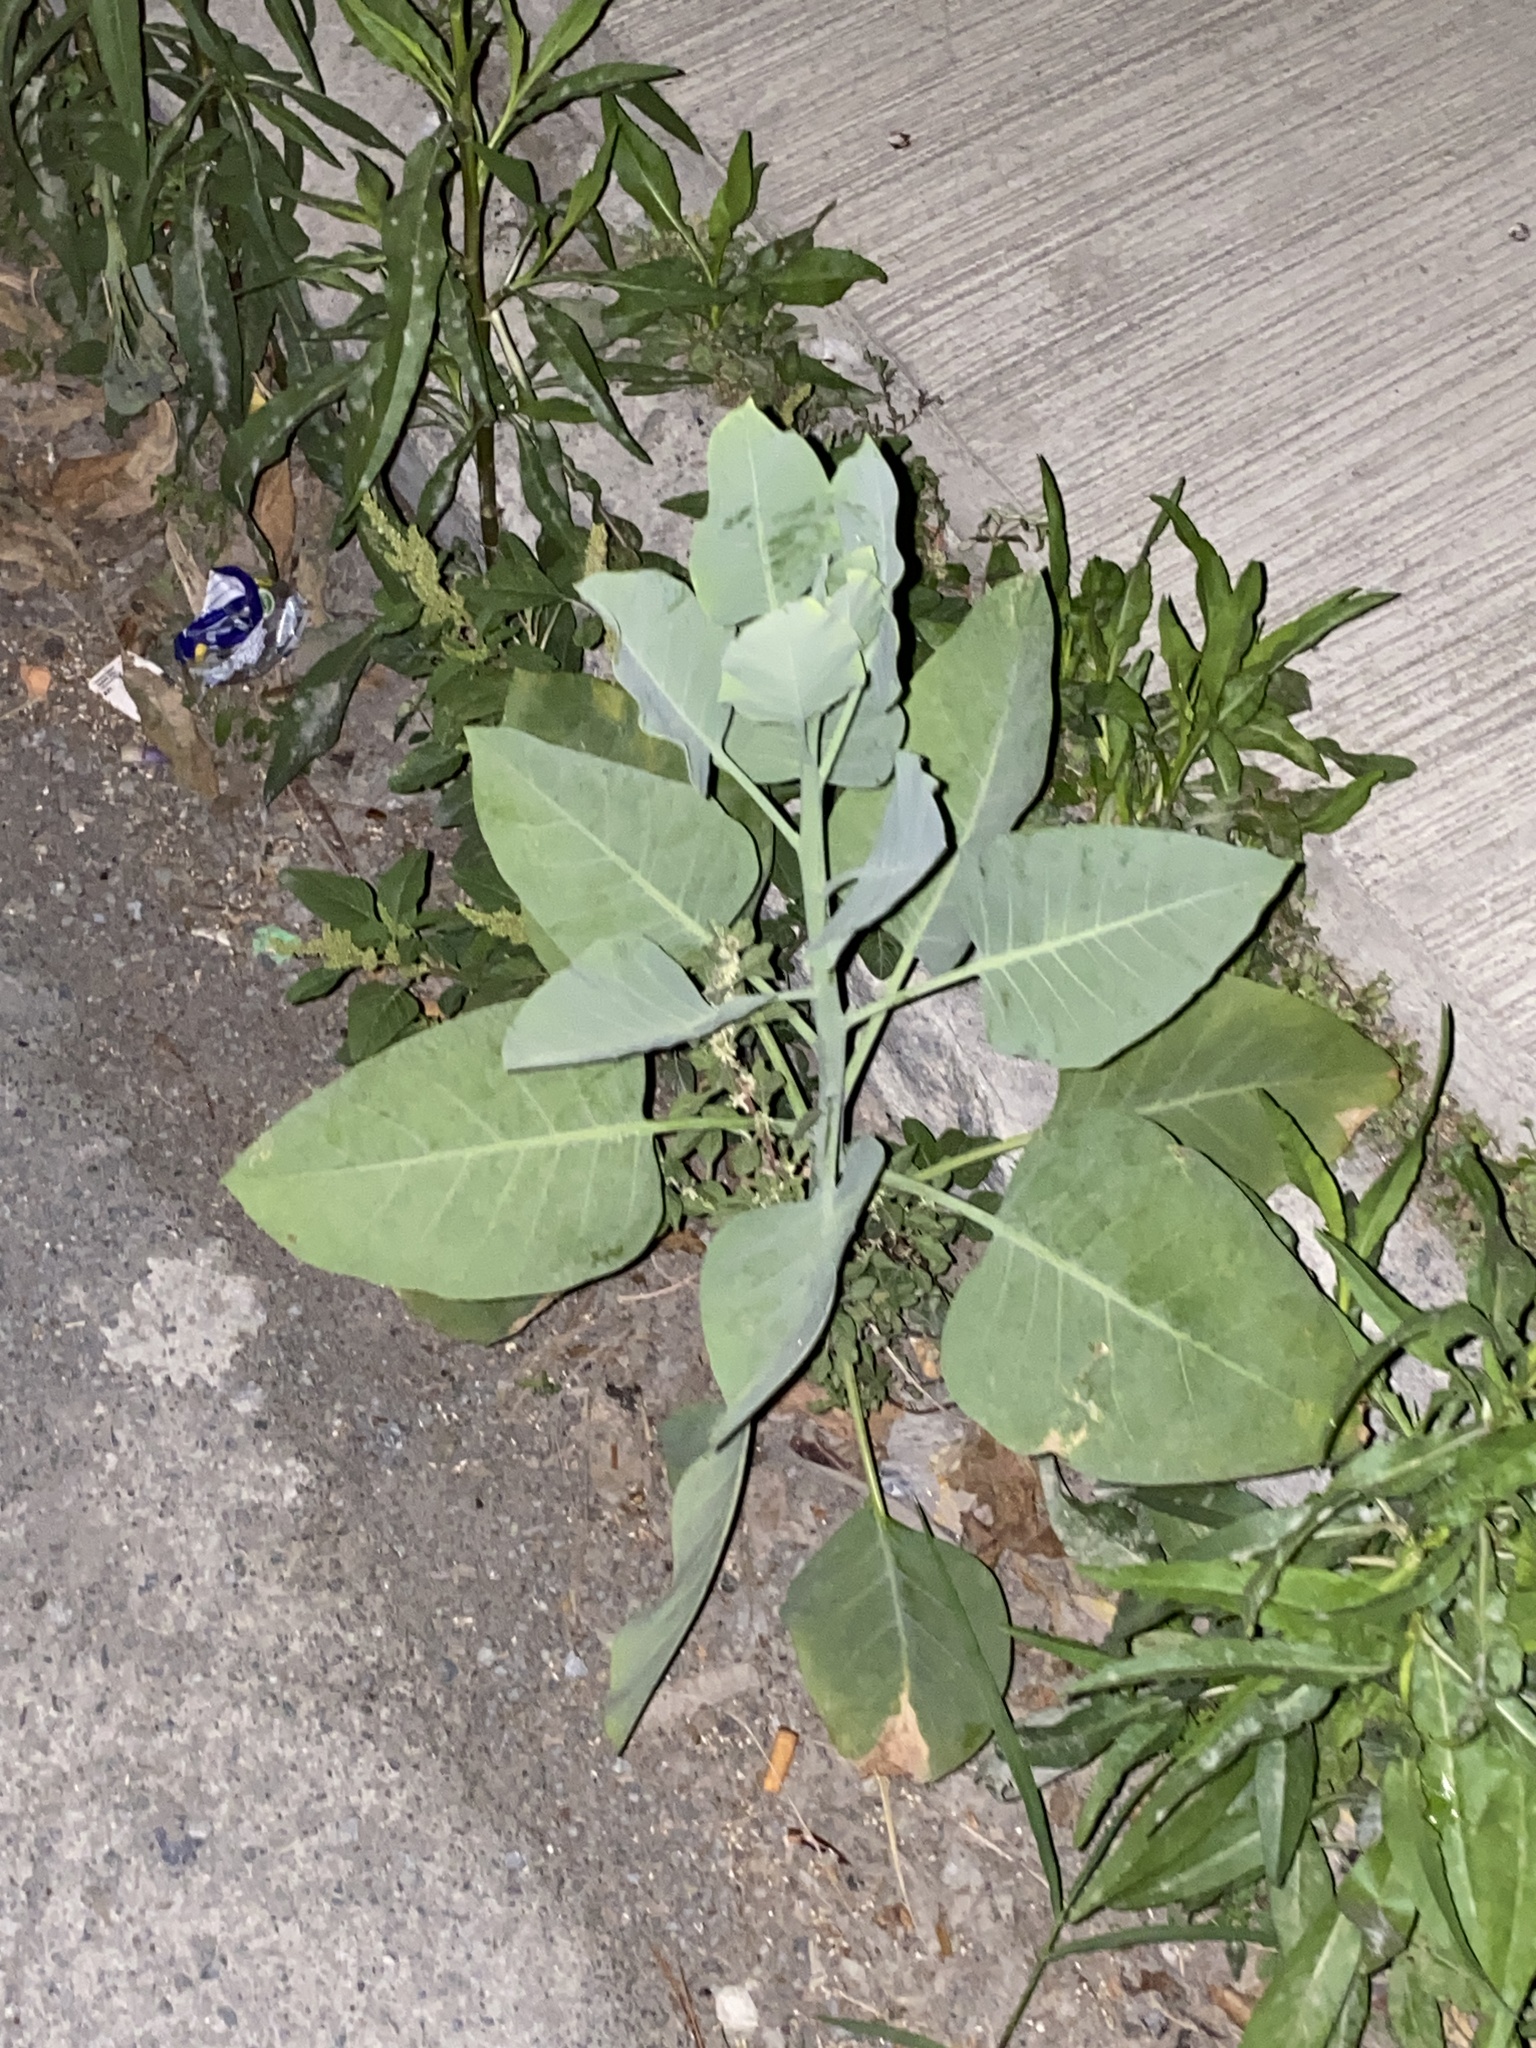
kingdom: Plantae
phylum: Tracheophyta
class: Magnoliopsida
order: Solanales
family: Solanaceae
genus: Nicotiana
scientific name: Nicotiana glauca
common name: Tree tobacco
